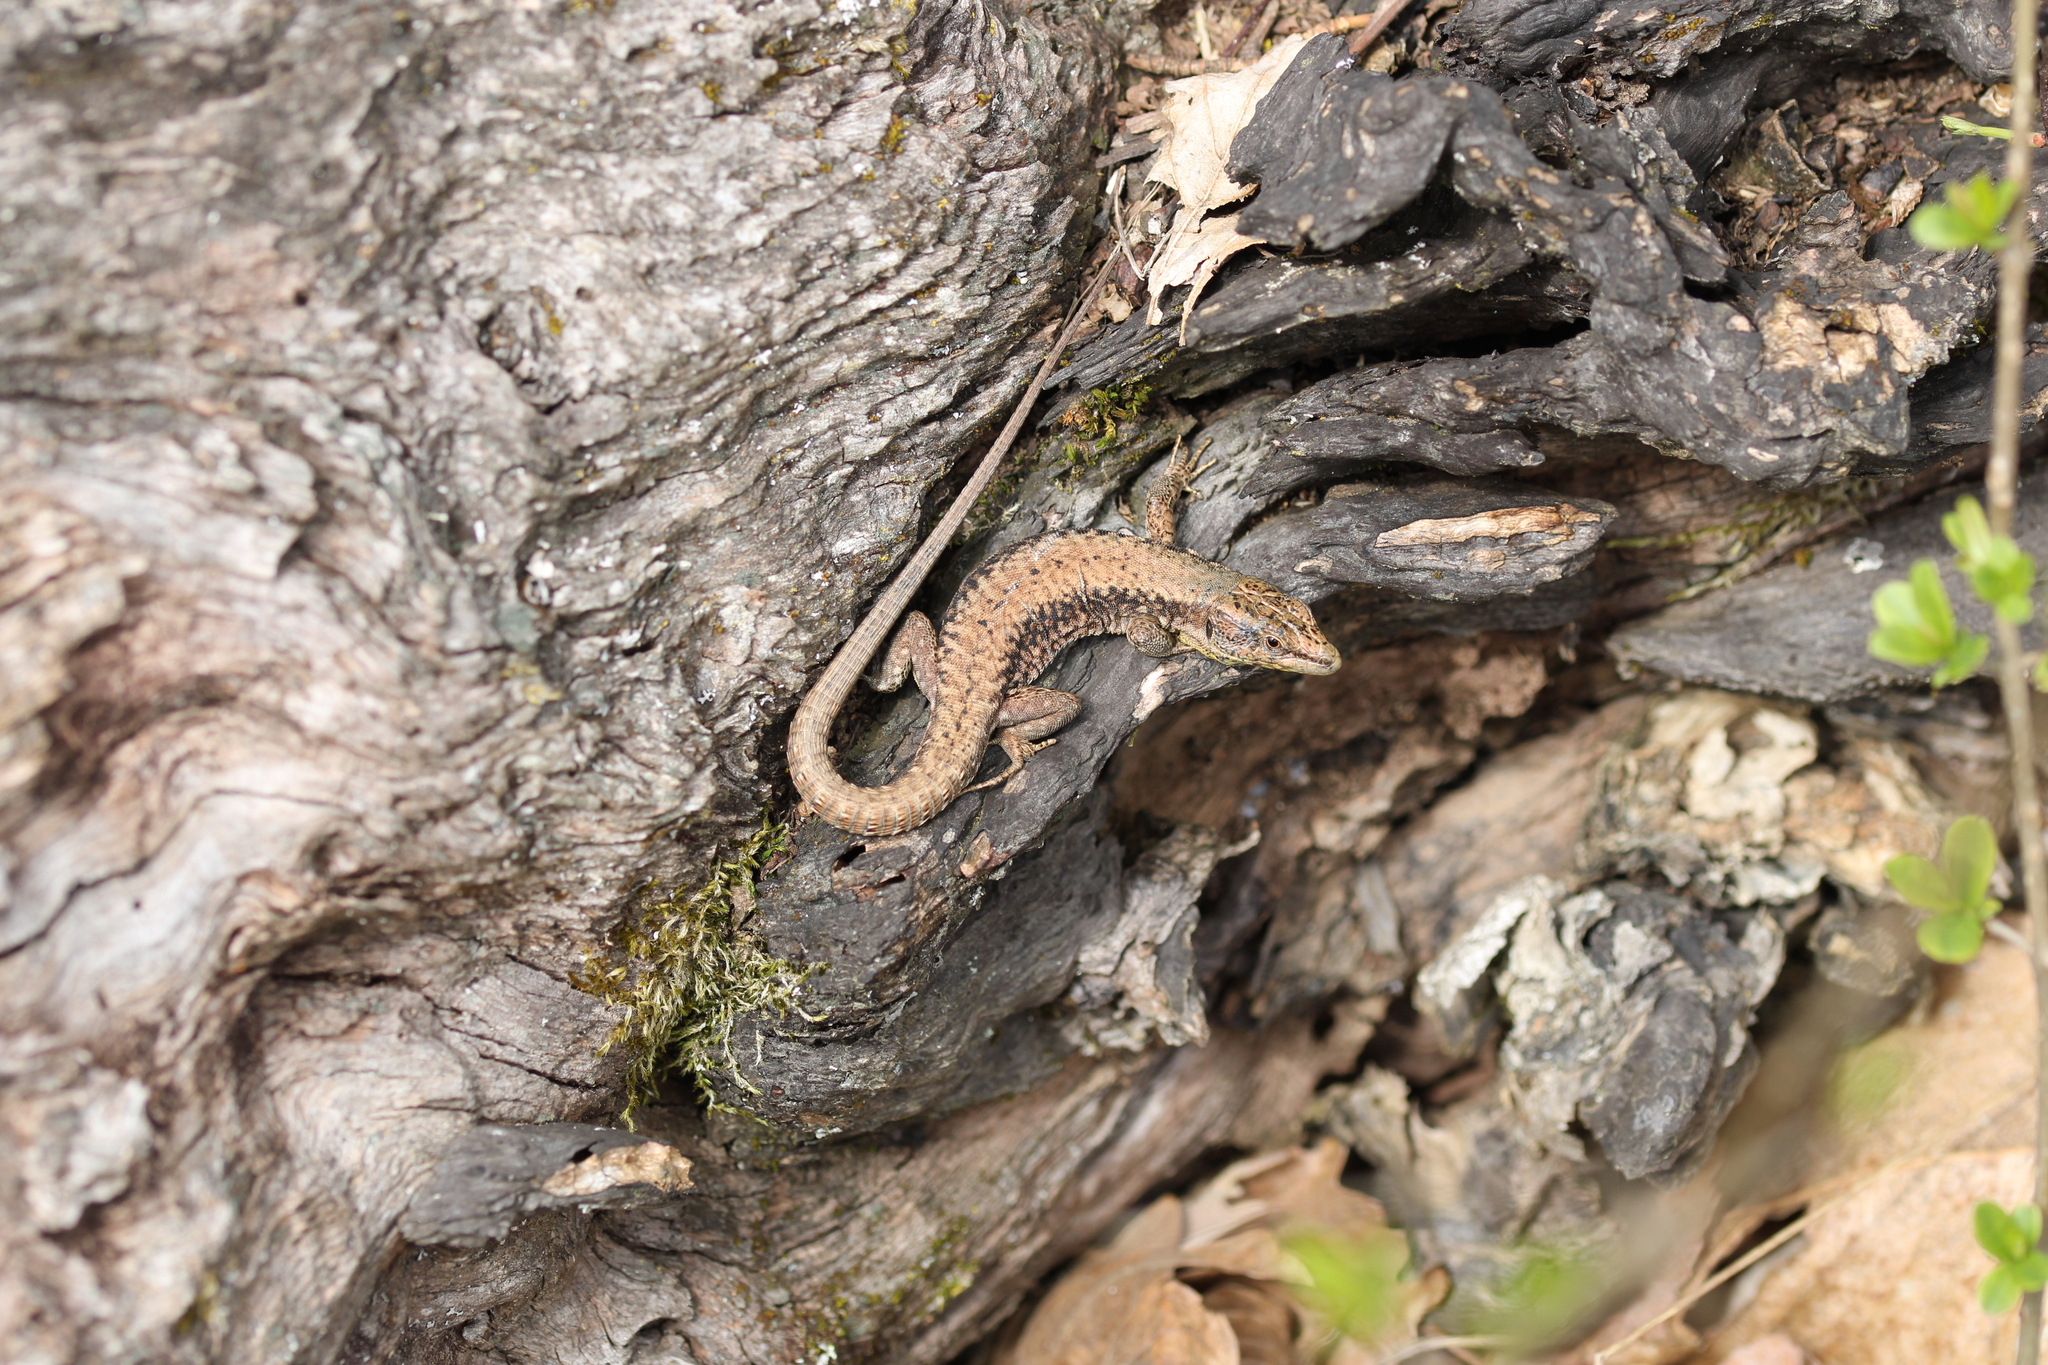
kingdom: Animalia
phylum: Chordata
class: Squamata
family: Lacertidae
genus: Podarcis
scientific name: Podarcis muralis
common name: Common wall lizard
